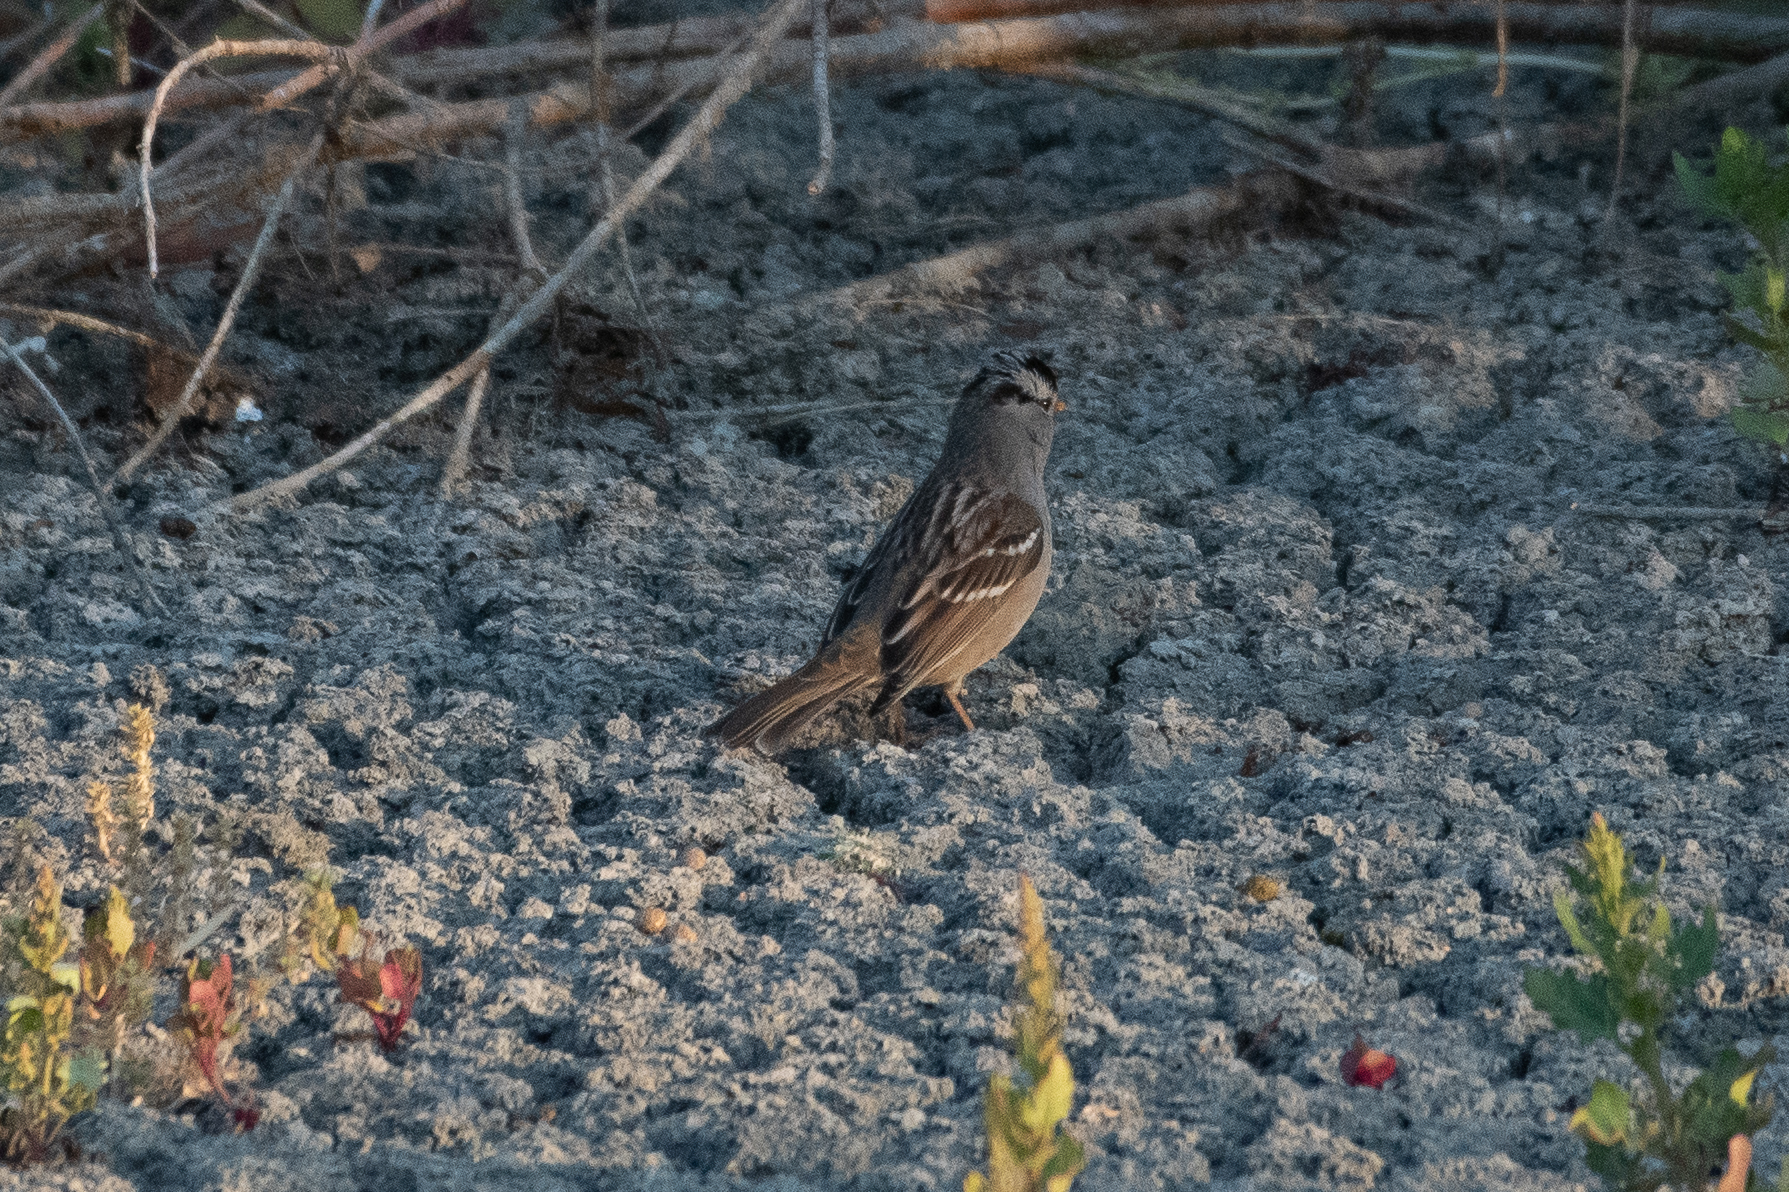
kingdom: Animalia
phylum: Chordata
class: Aves
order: Passeriformes
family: Passerellidae
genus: Zonotrichia
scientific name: Zonotrichia leucophrys
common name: White-crowned sparrow
